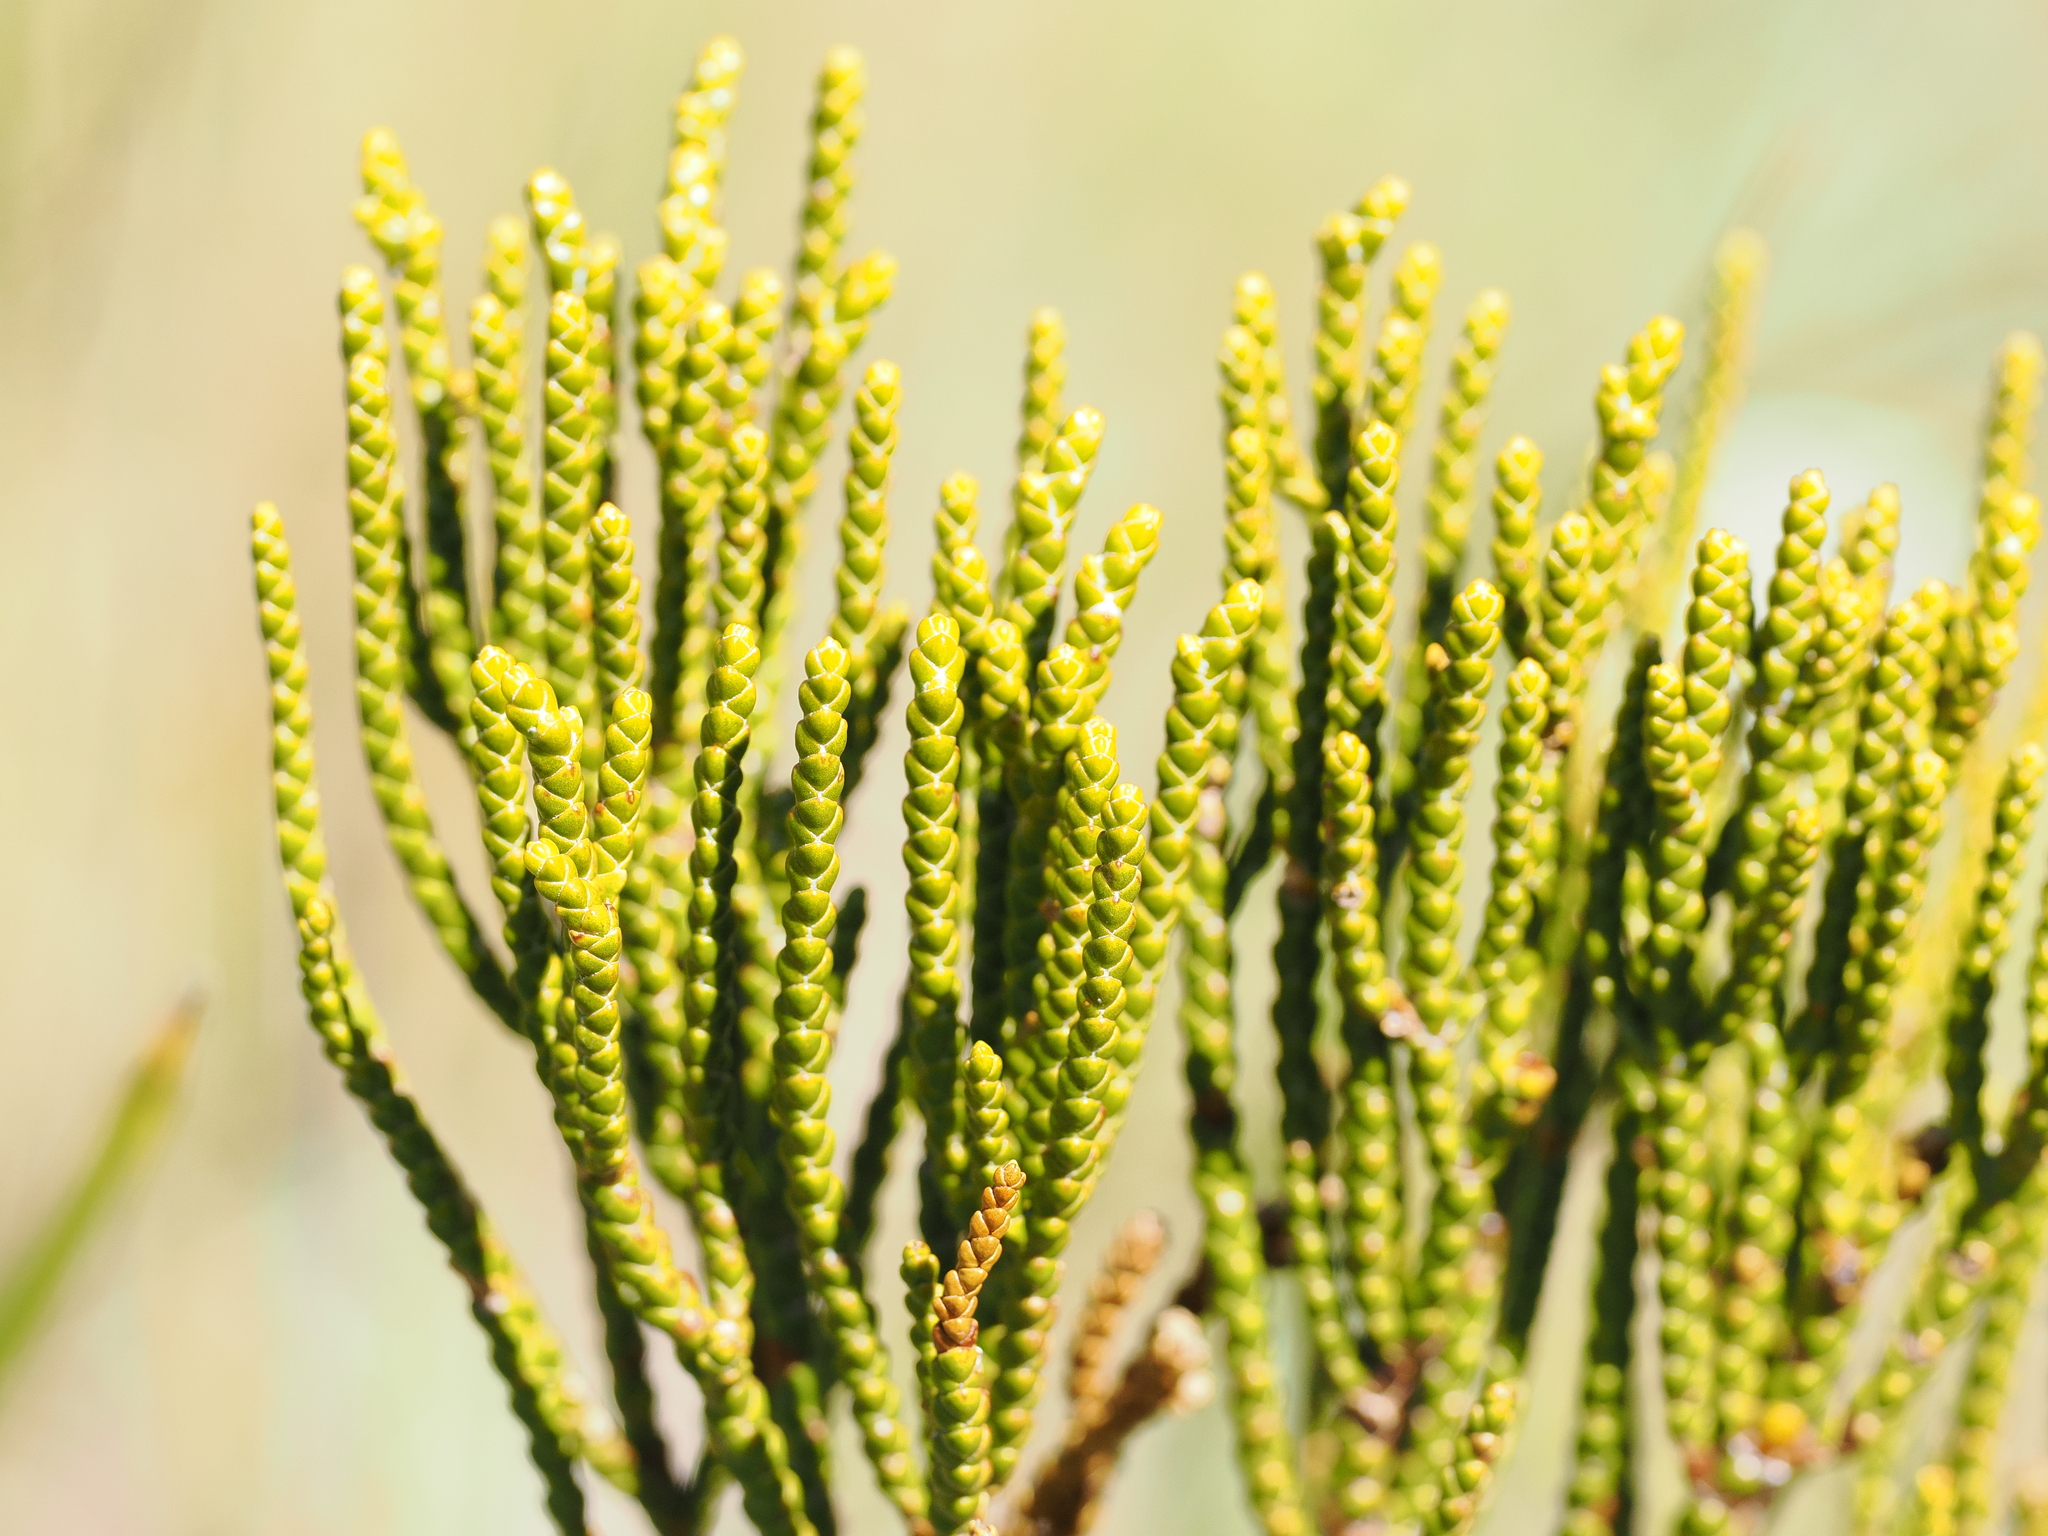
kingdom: Plantae
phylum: Tracheophyta
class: Magnoliopsida
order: Lamiales
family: Plantaginaceae
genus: Veronica
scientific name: Veronica hectorii
